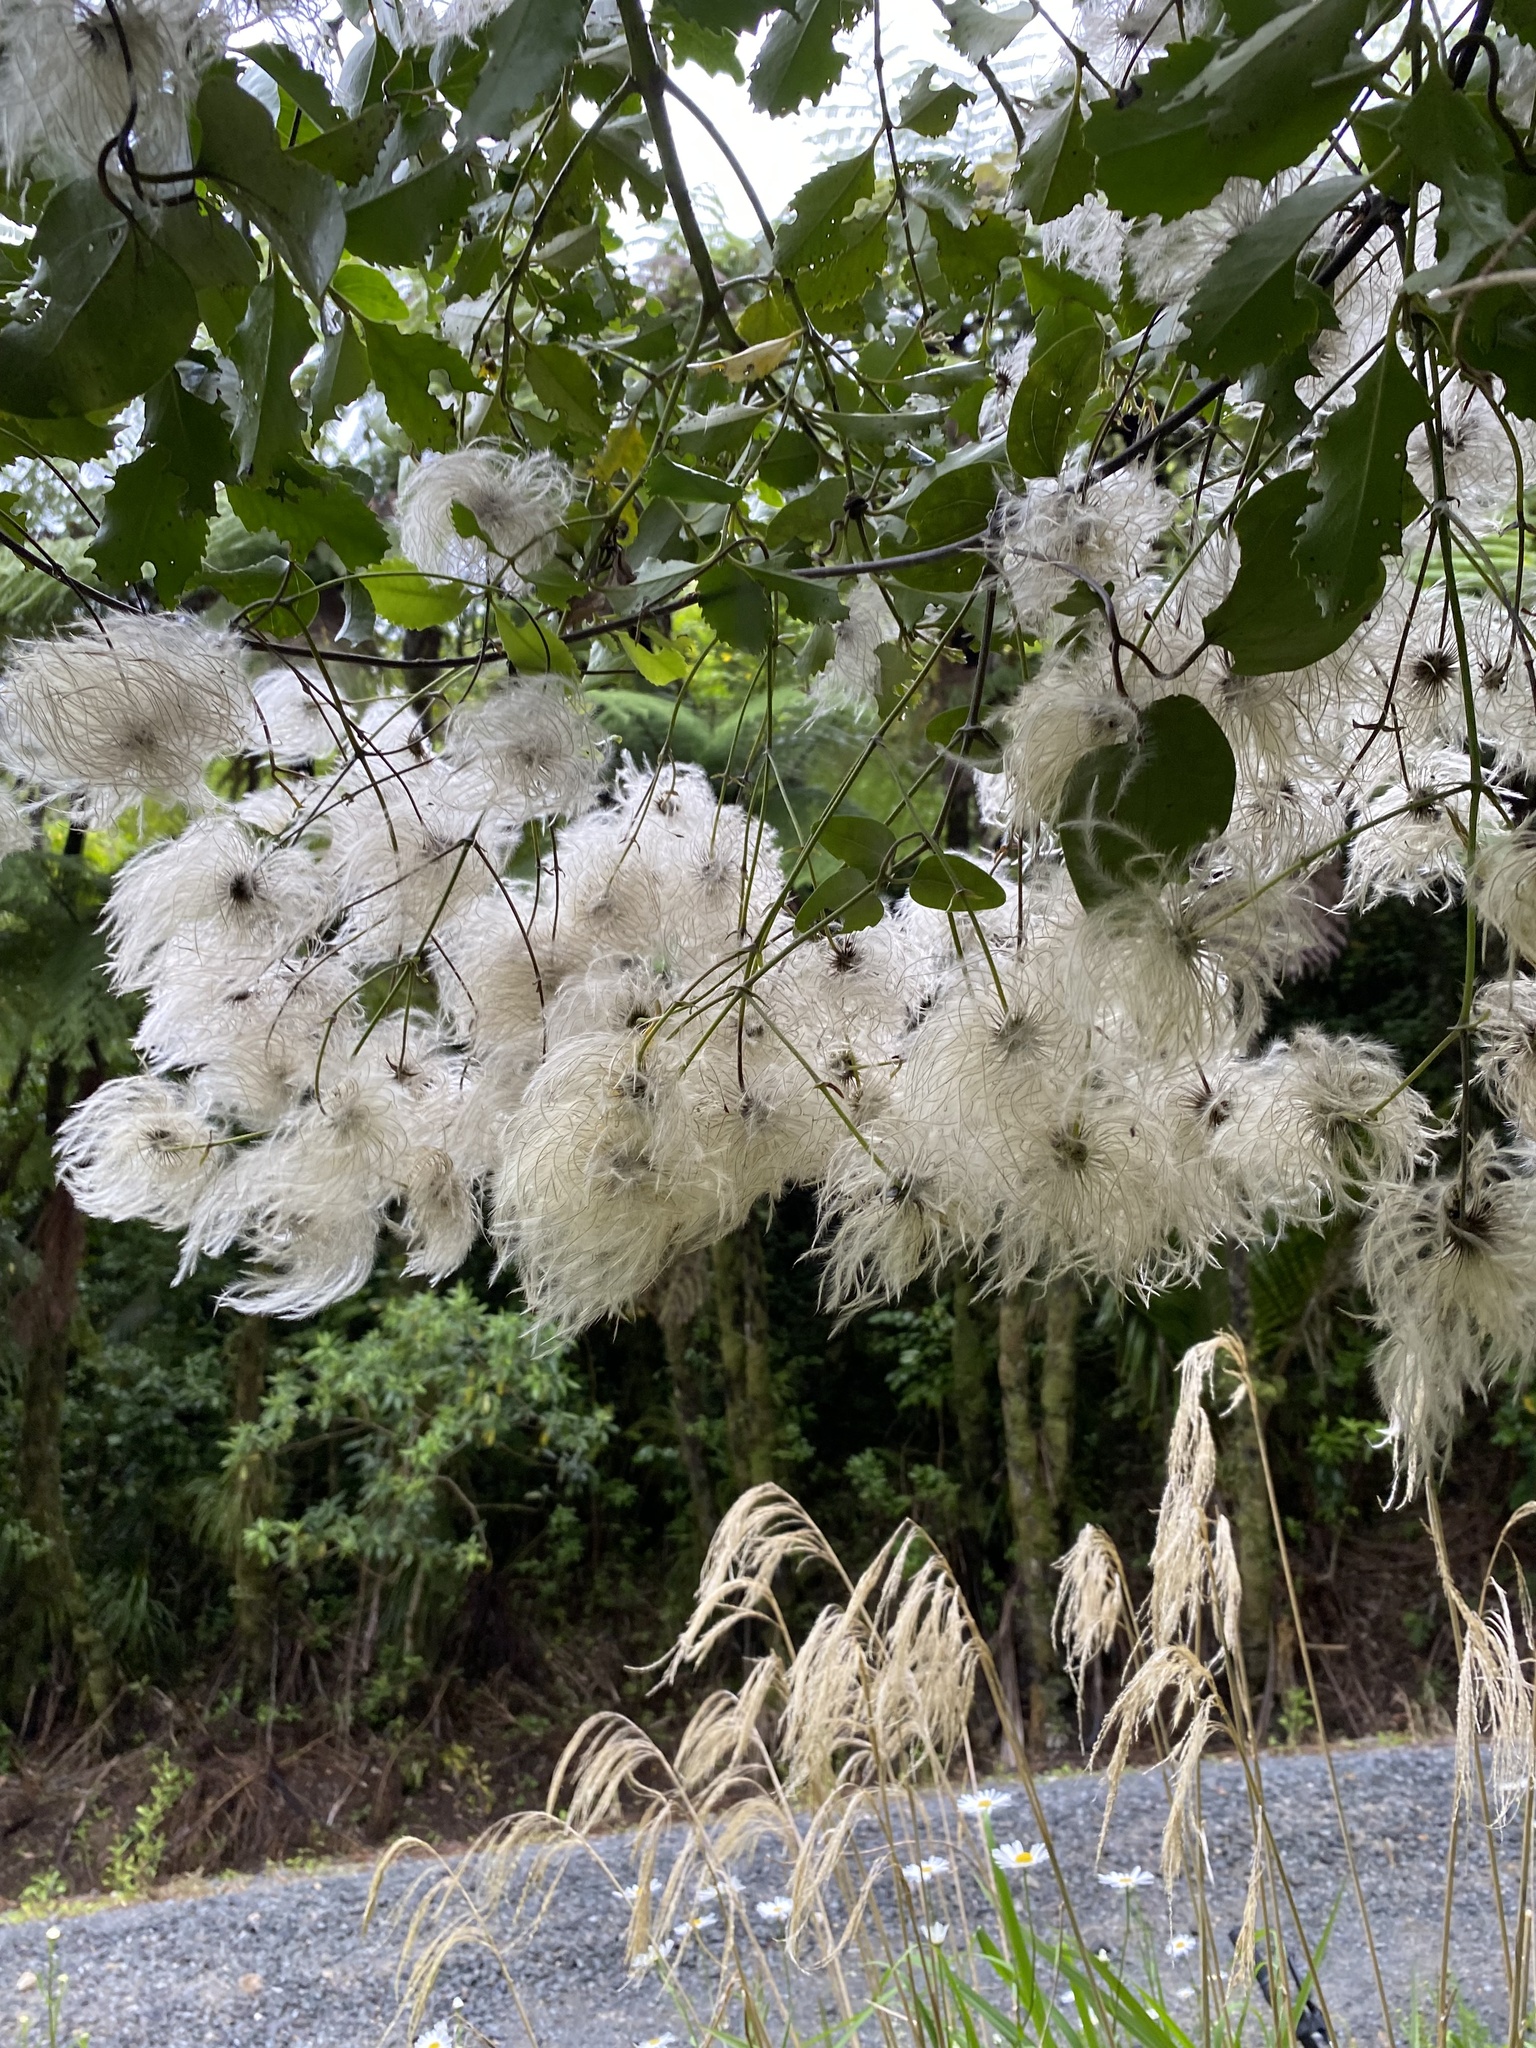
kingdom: Plantae
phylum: Tracheophyta
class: Magnoliopsida
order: Ranunculales
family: Ranunculaceae
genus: Clematis
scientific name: Clematis paniculata
